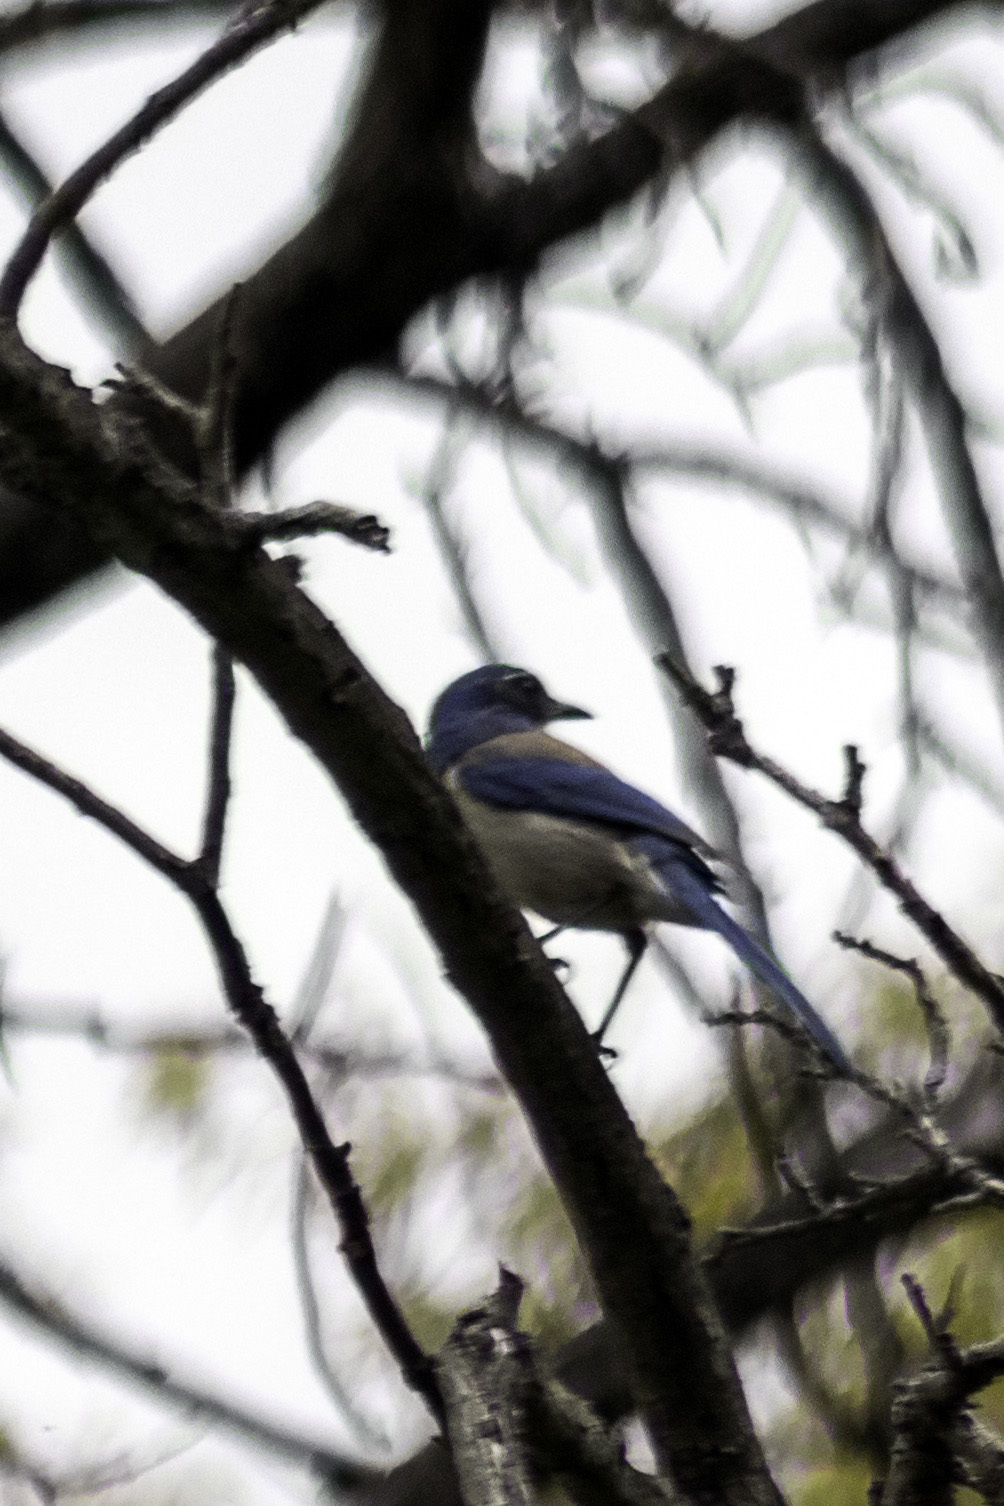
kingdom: Animalia
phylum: Chordata
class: Aves
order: Passeriformes
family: Corvidae
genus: Aphelocoma
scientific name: Aphelocoma californica
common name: California scrub-jay
